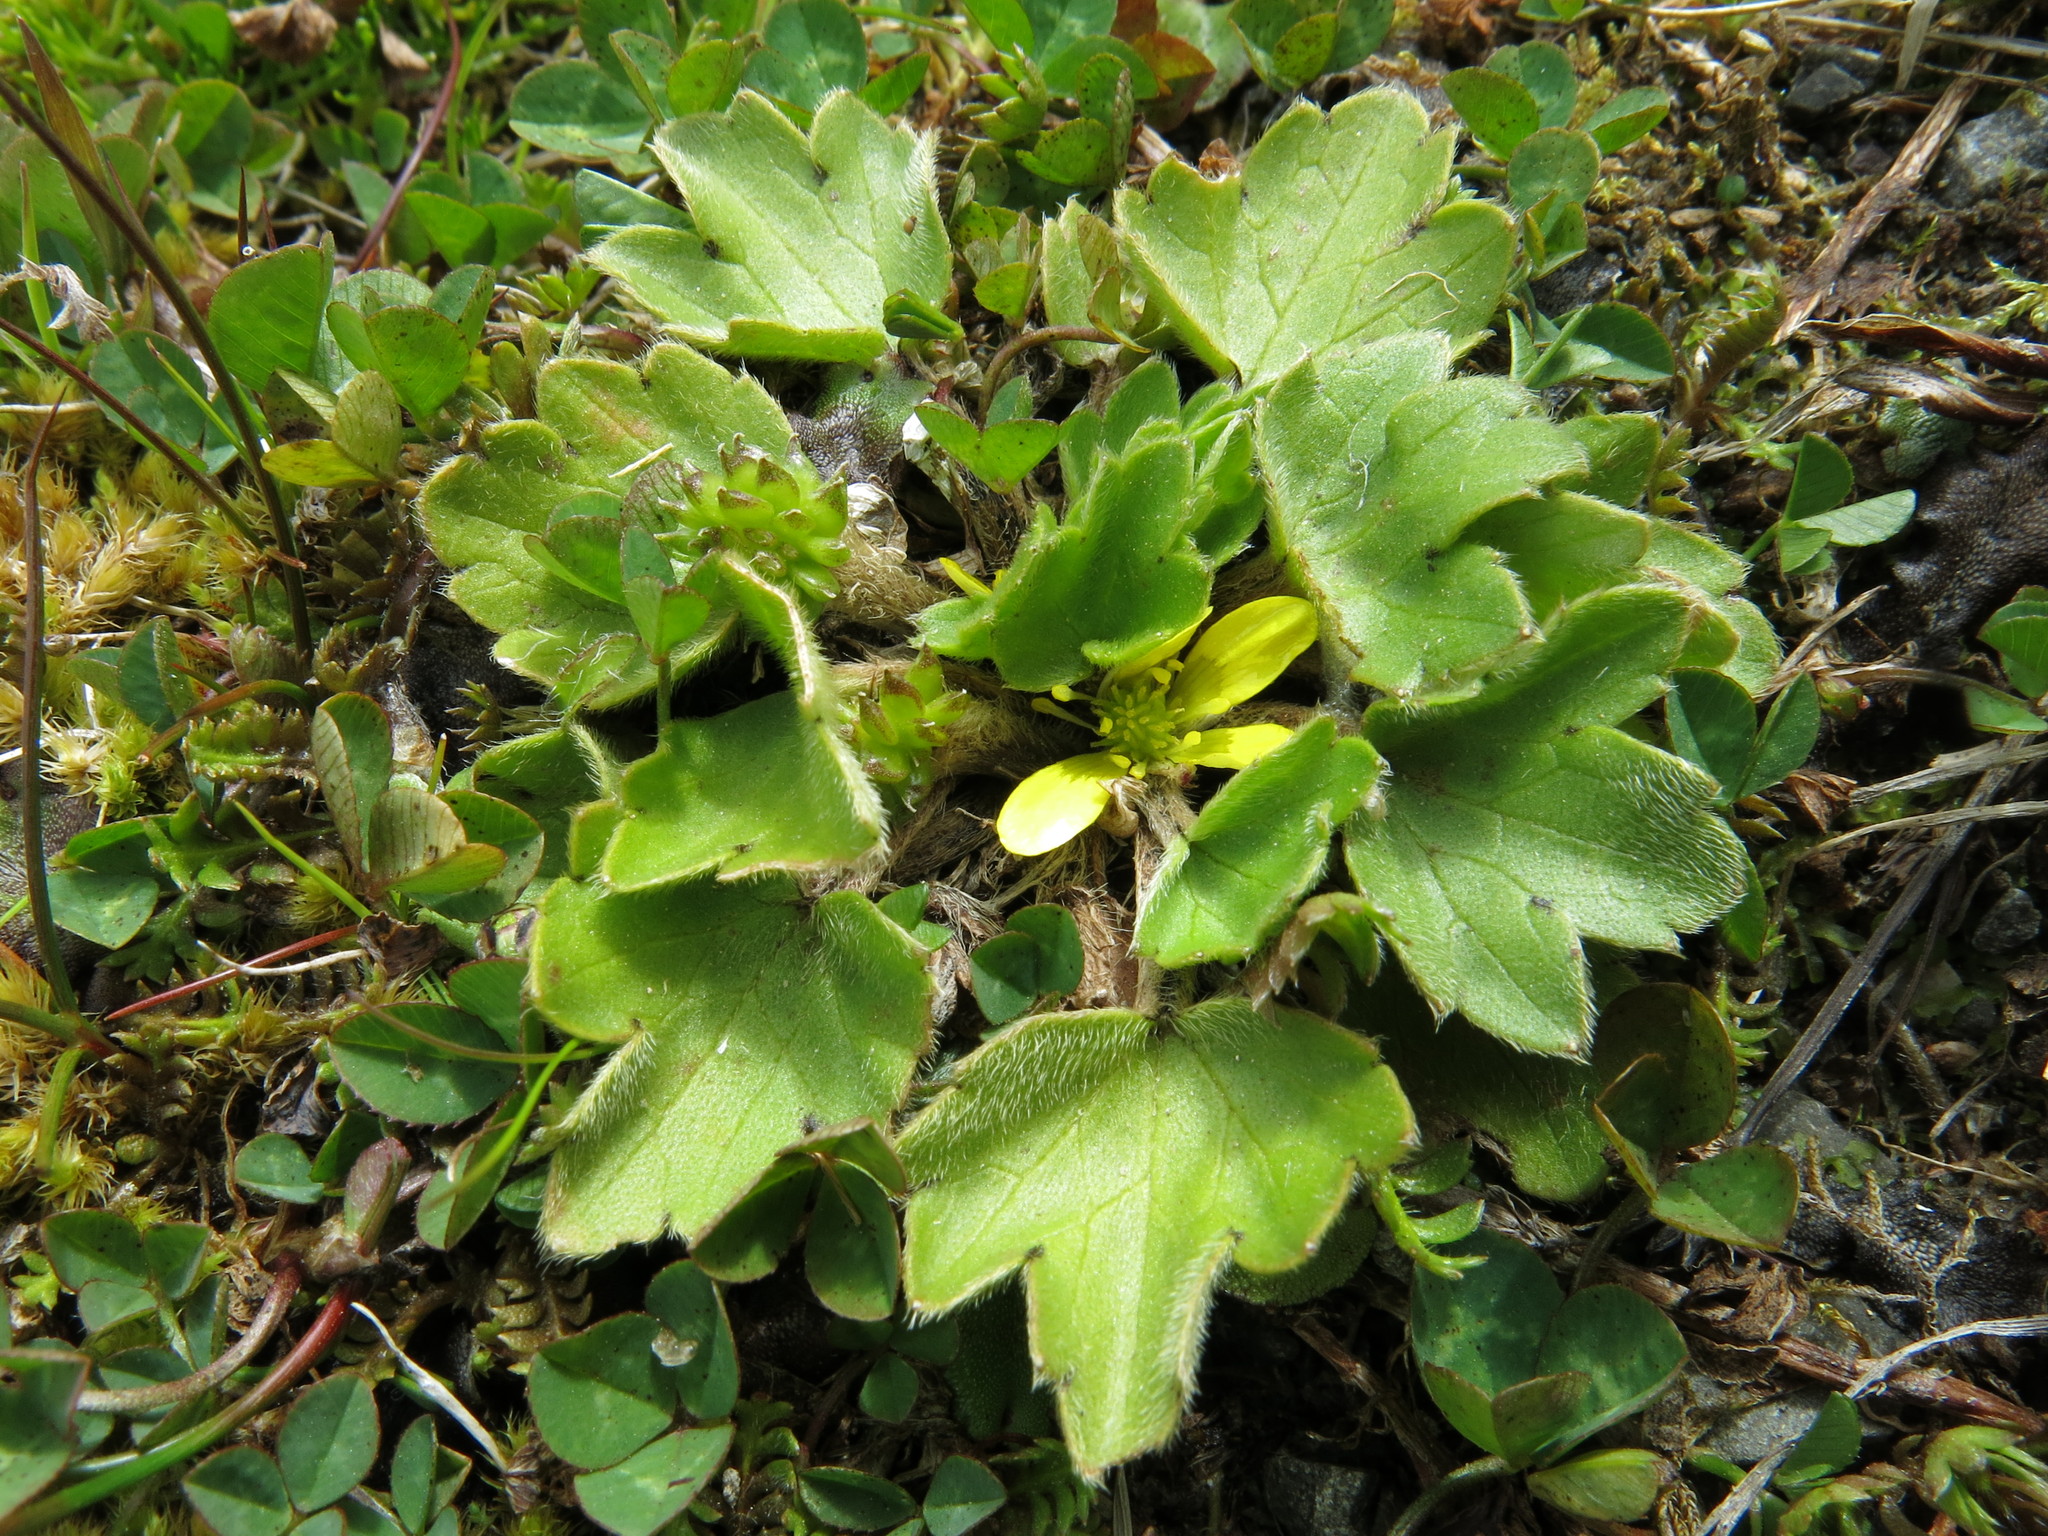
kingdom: Plantae
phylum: Tracheophyta
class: Magnoliopsida
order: Ranunculales
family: Ranunculaceae
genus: Ranunculus
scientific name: Ranunculus foliosus
